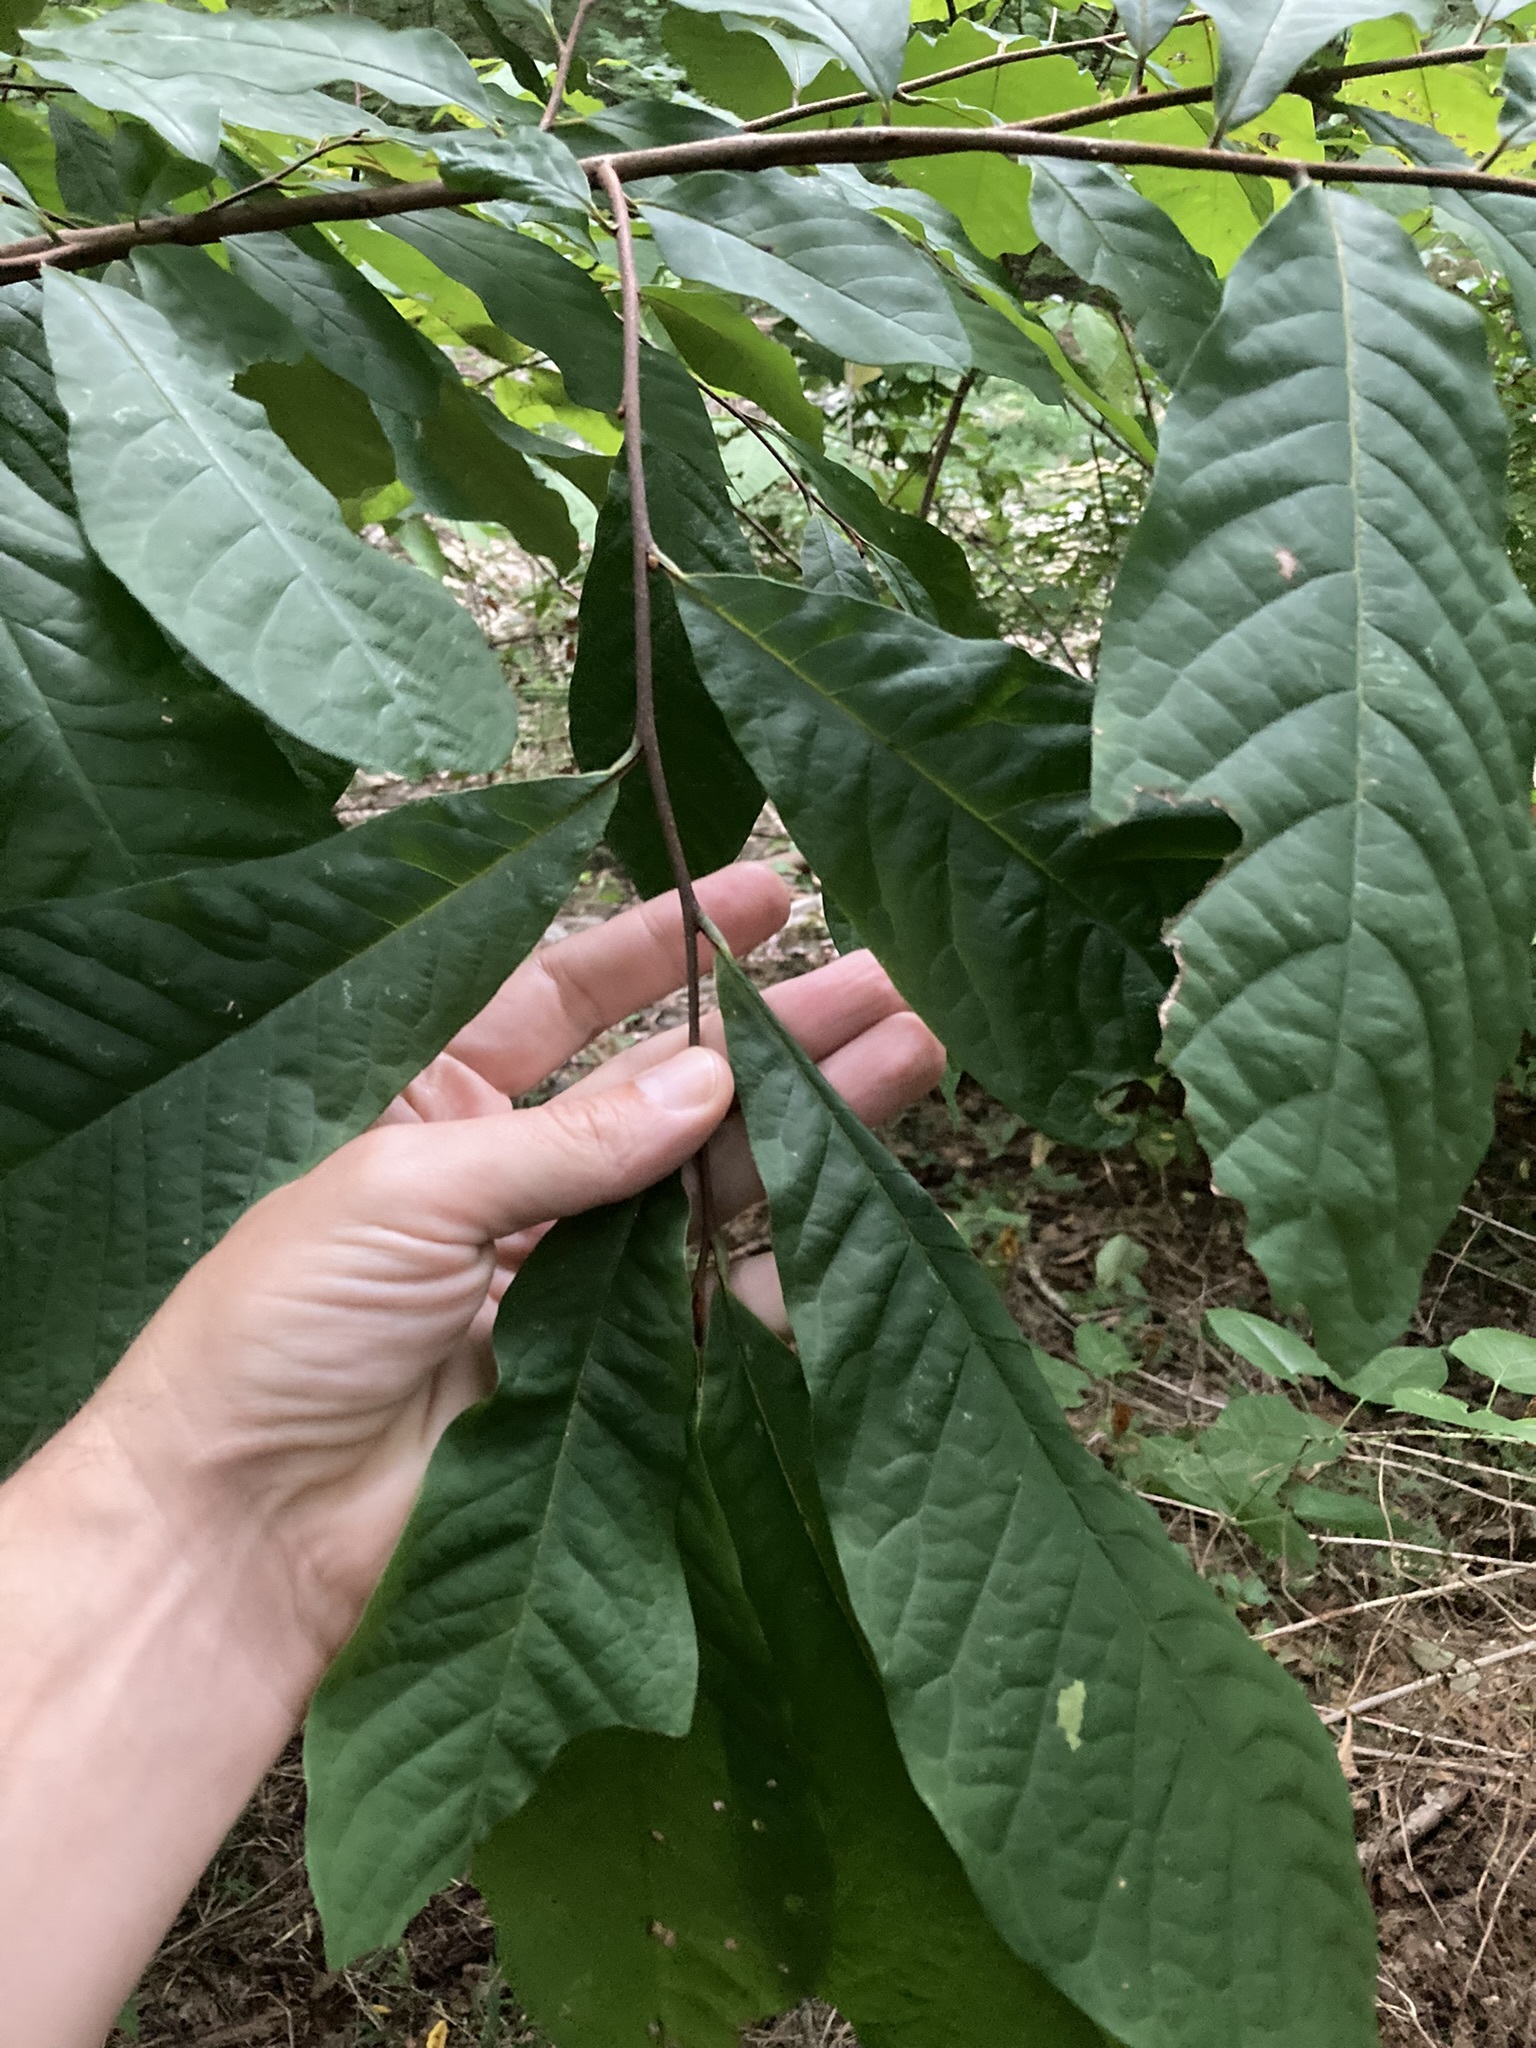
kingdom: Plantae
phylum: Tracheophyta
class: Magnoliopsida
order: Magnoliales
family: Annonaceae
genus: Asimina
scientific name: Asimina triloba
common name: Dog-banana
